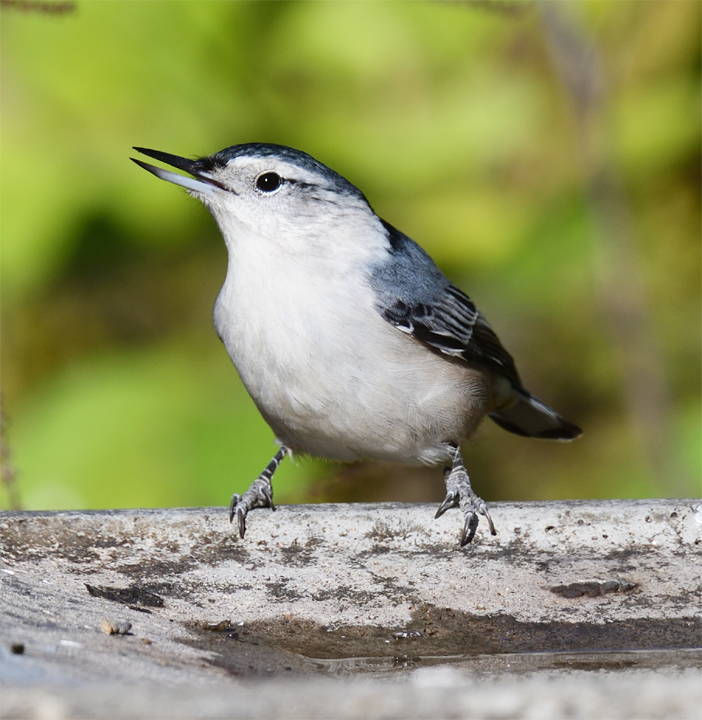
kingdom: Animalia
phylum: Chordata
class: Aves
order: Passeriformes
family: Sittidae
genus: Sitta
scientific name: Sitta carolinensis
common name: White-breasted nuthatch
